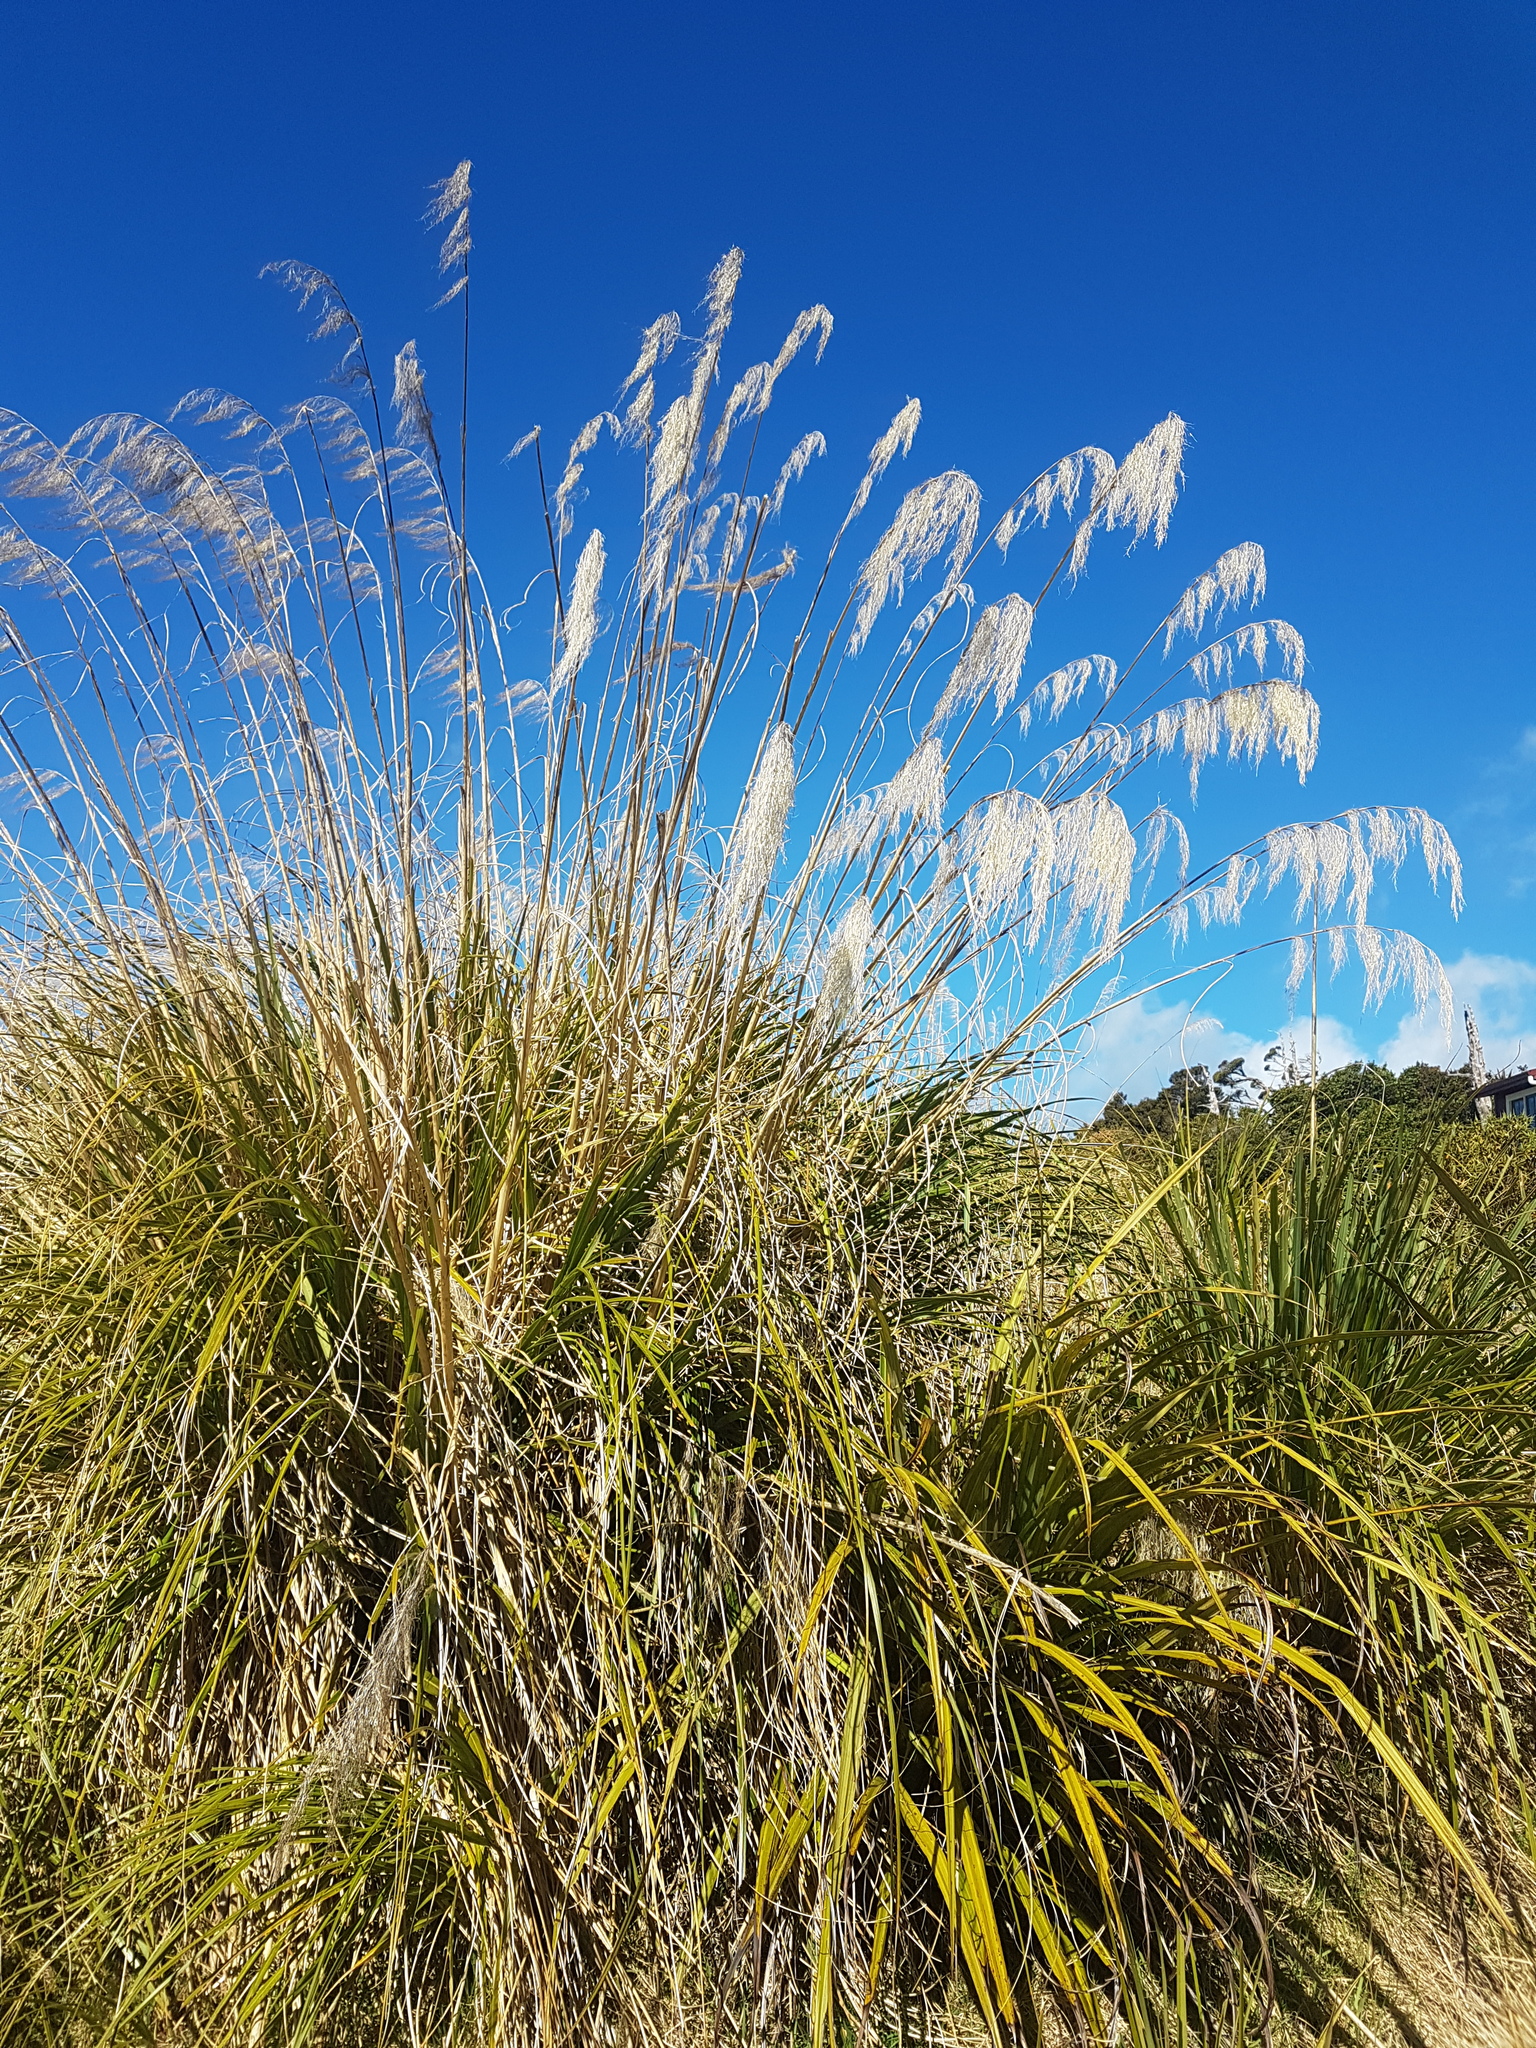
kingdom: Plantae
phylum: Tracheophyta
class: Liliopsida
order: Poales
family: Poaceae
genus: Austroderia
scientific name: Austroderia fulvida
